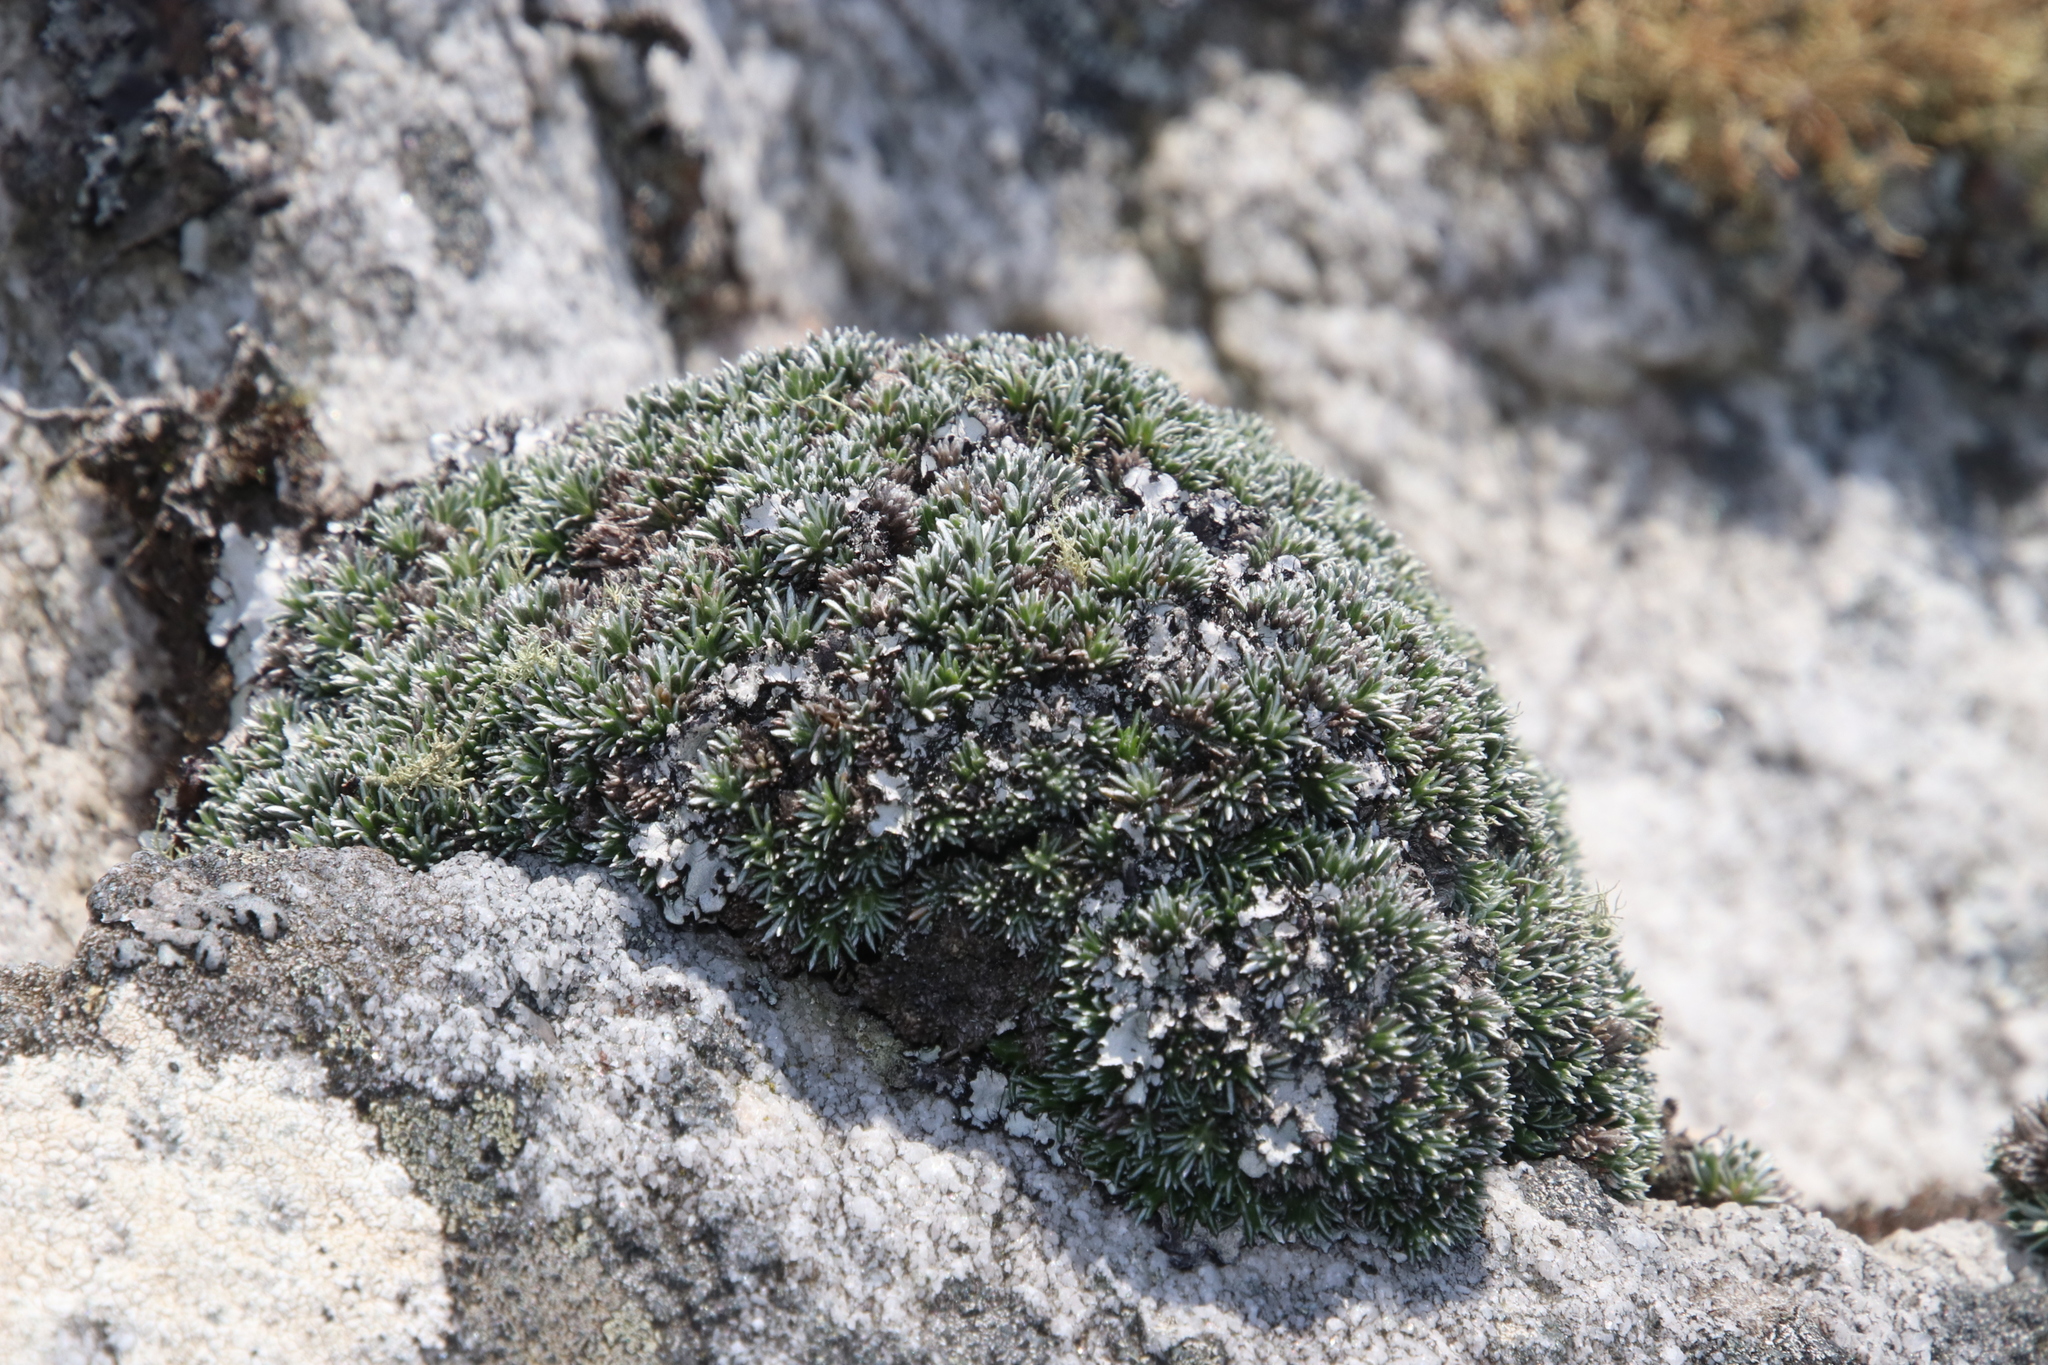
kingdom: Plantae
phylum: Tracheophyta
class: Magnoliopsida
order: Asterales
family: Asteraceae
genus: Muscosomorphe
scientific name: Muscosomorphe aretioides
